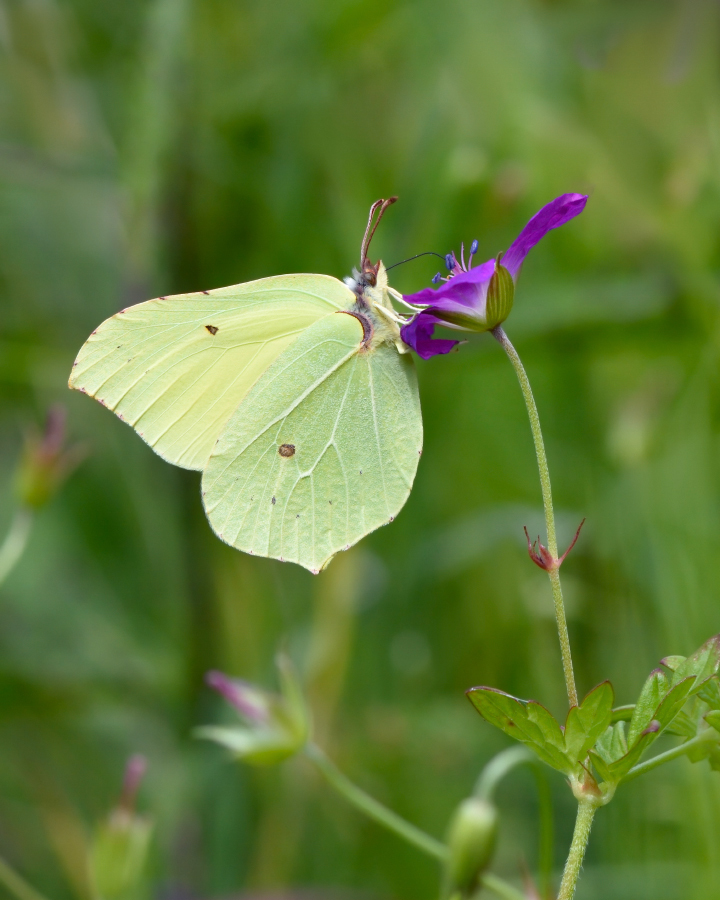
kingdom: Animalia
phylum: Arthropoda
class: Insecta
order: Lepidoptera
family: Pieridae
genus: Gonepteryx
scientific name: Gonepteryx rhamni
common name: Brimstone
